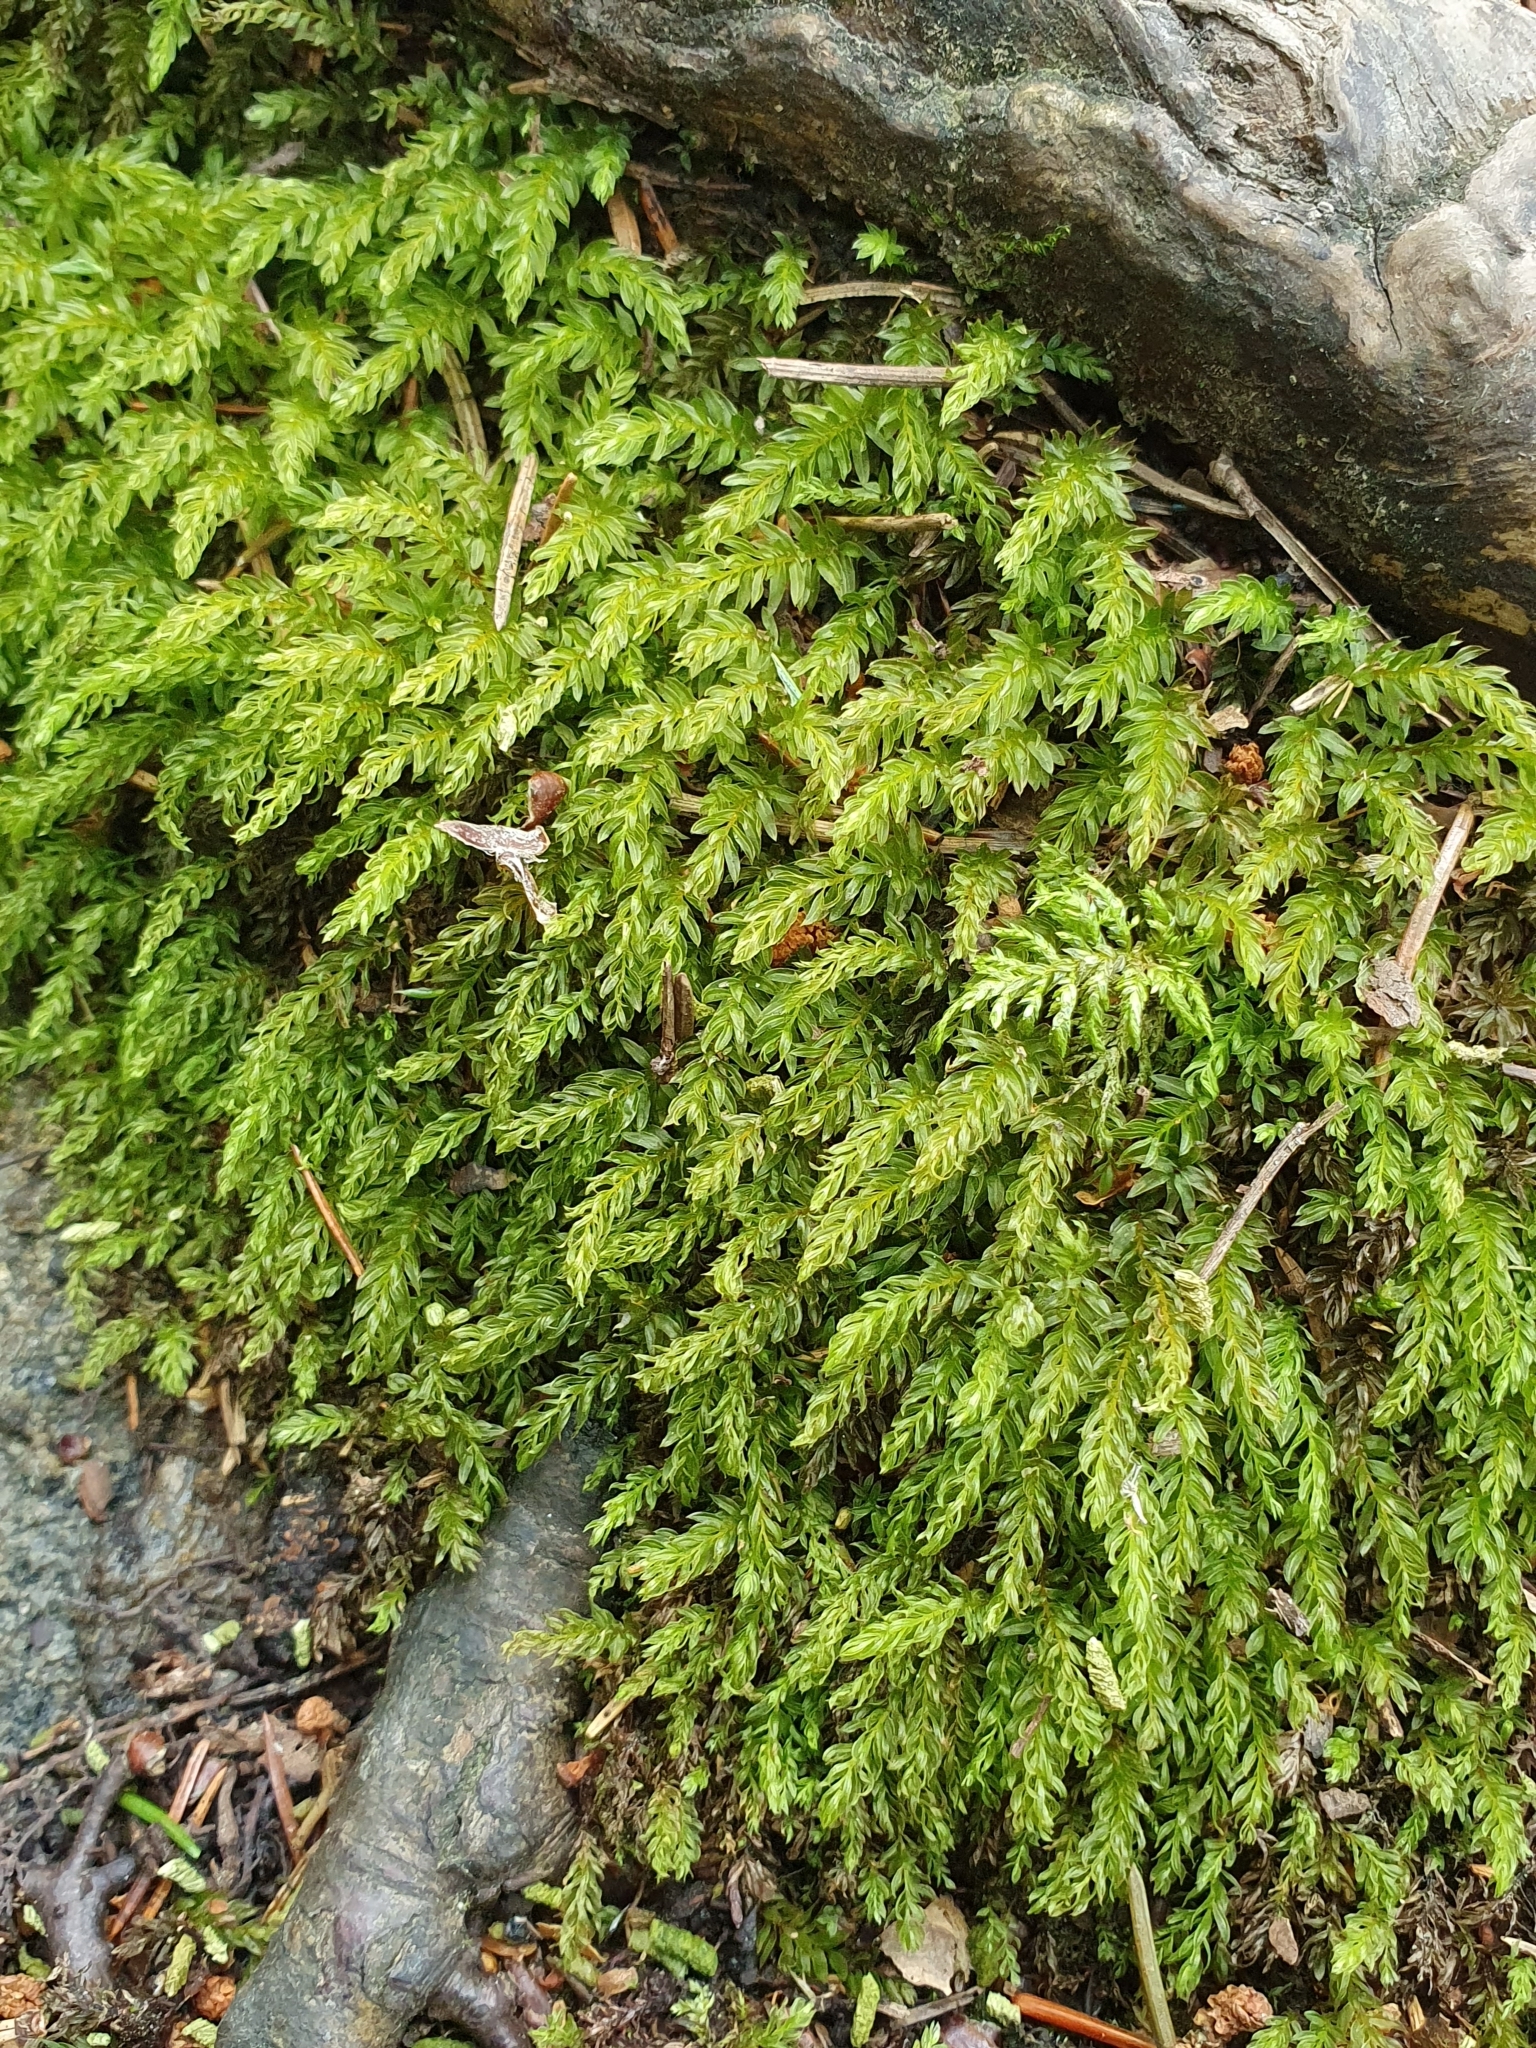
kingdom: Plantae
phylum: Bryophyta
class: Bryopsida
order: Bryales
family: Mniaceae
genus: Mnium
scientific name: Mnium hornum
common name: Swan's-neck leafy moss
